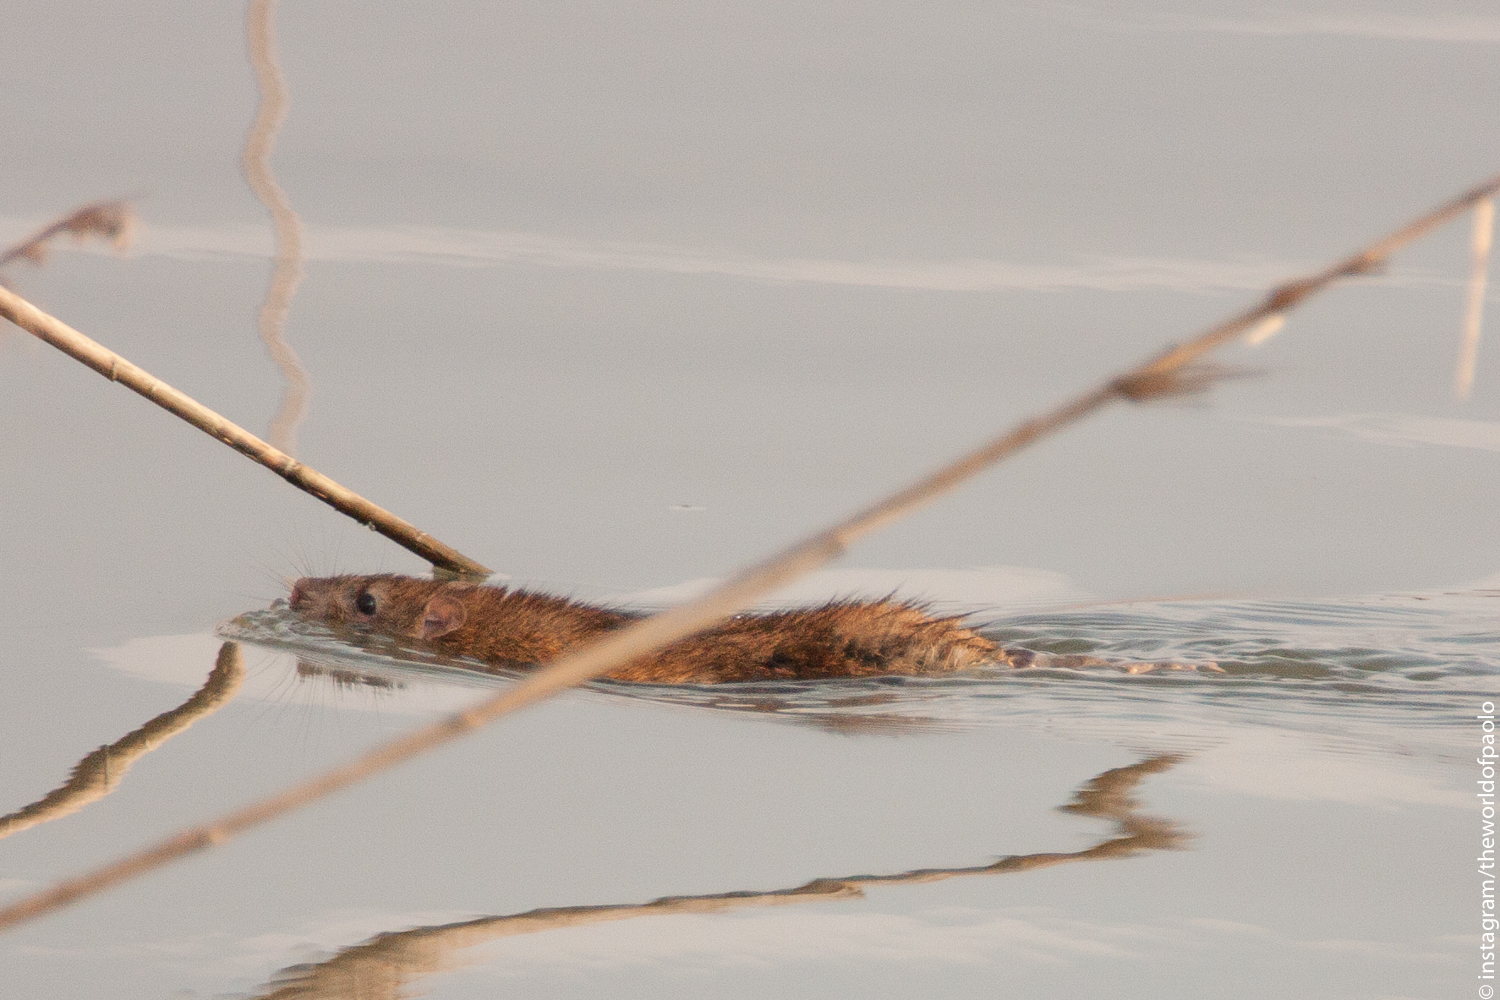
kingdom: Animalia
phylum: Chordata
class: Mammalia
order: Rodentia
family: Muridae
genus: Rattus
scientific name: Rattus norvegicus
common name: Brown rat
